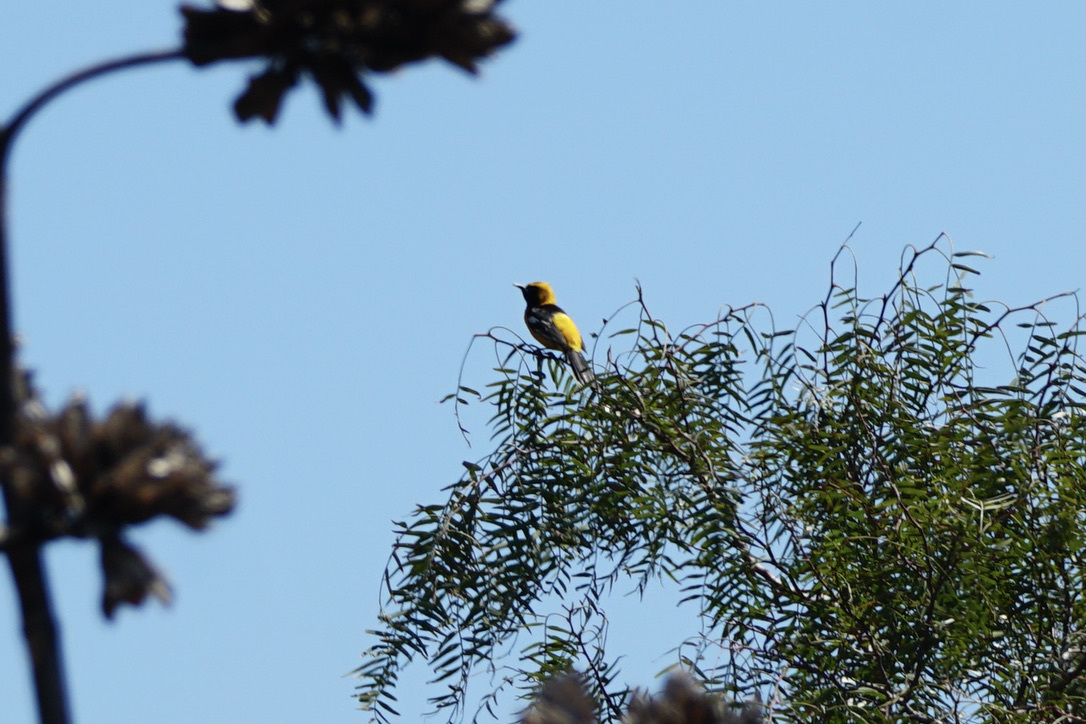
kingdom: Animalia
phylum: Chordata
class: Aves
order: Passeriformes
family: Icteridae
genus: Icterus
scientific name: Icterus cucullatus
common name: Hooded oriole
